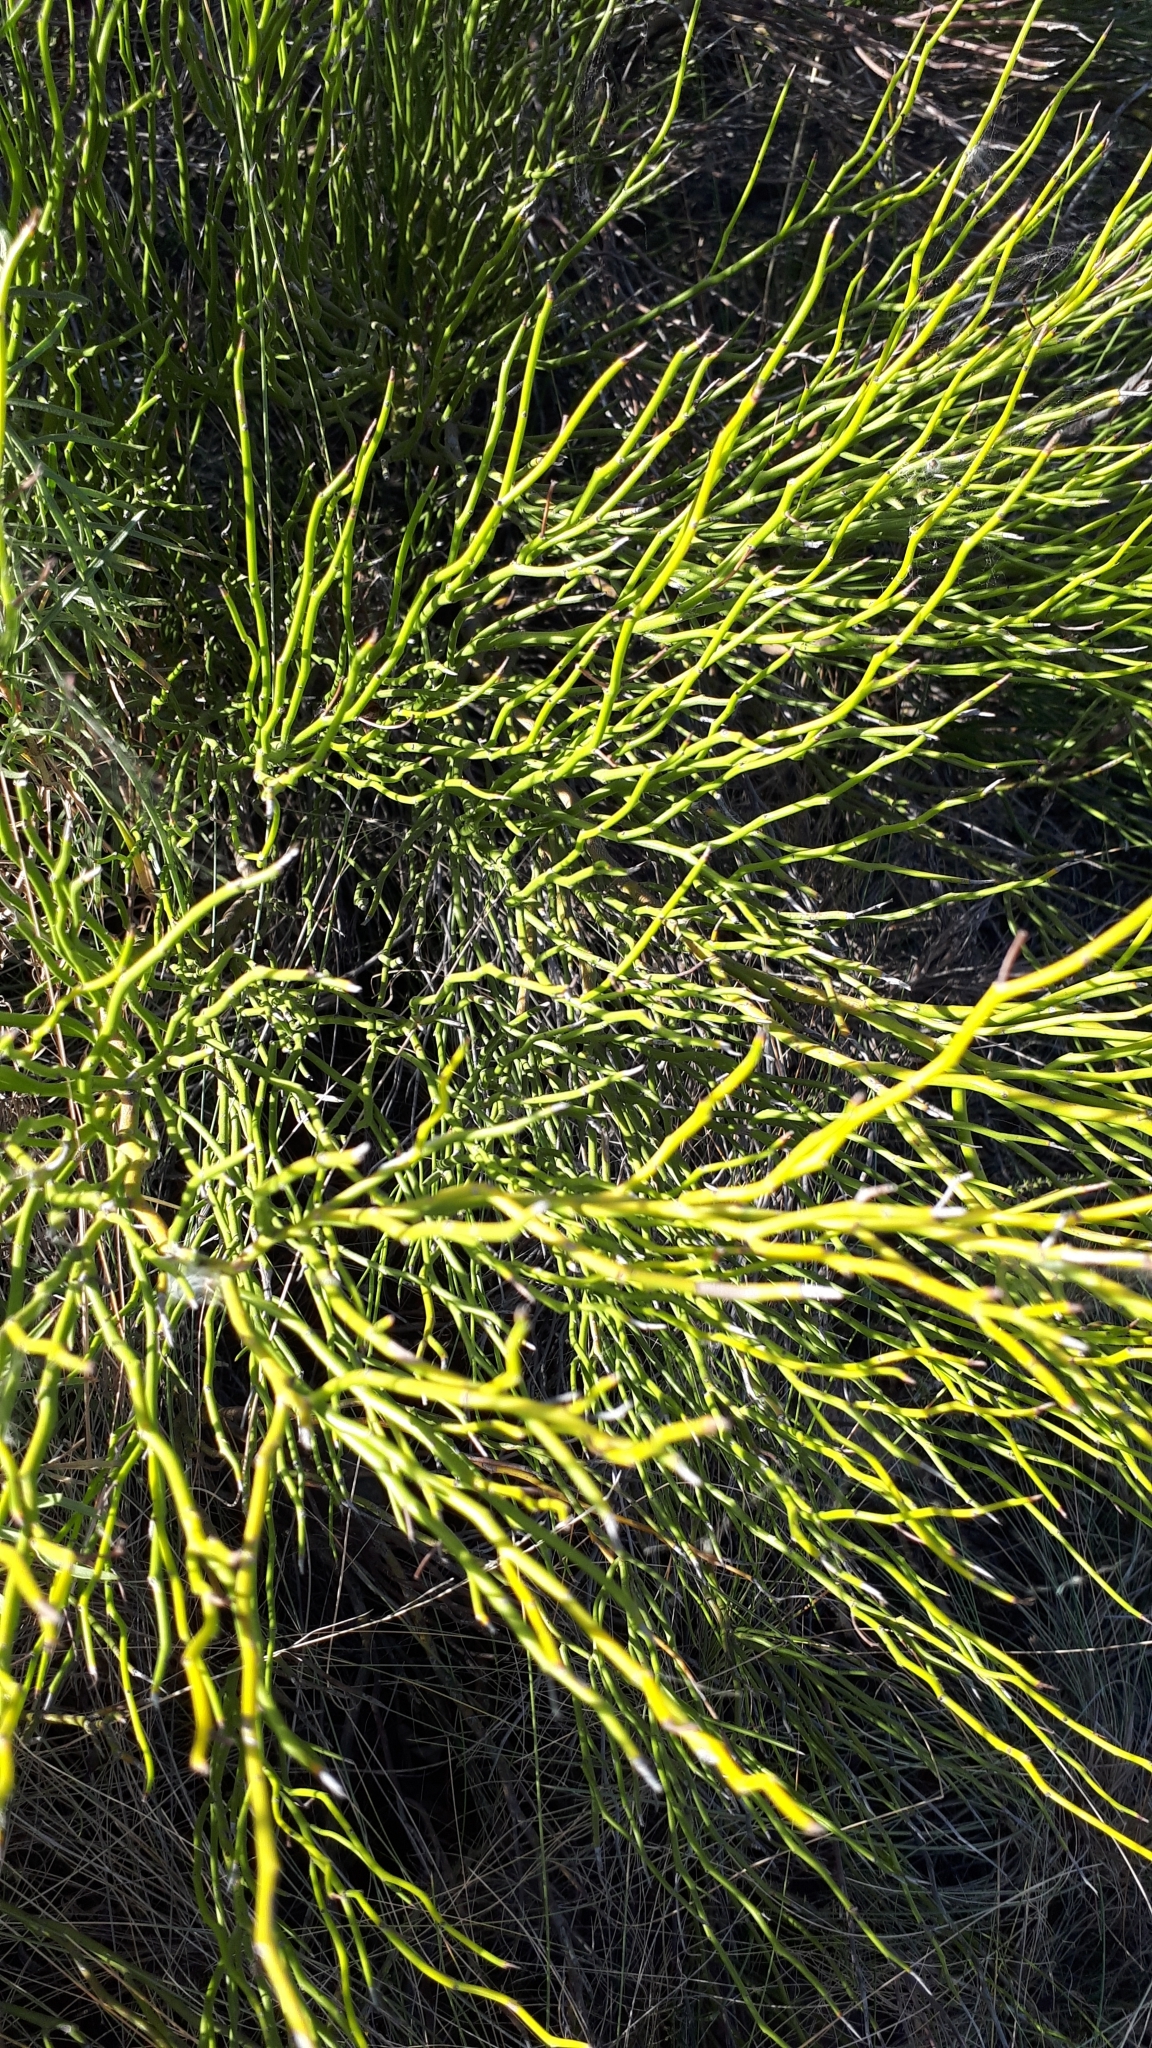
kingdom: Plantae
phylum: Tracheophyta
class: Magnoliopsida
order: Fabales
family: Fabaceae
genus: Senna
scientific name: Senna aphylla
